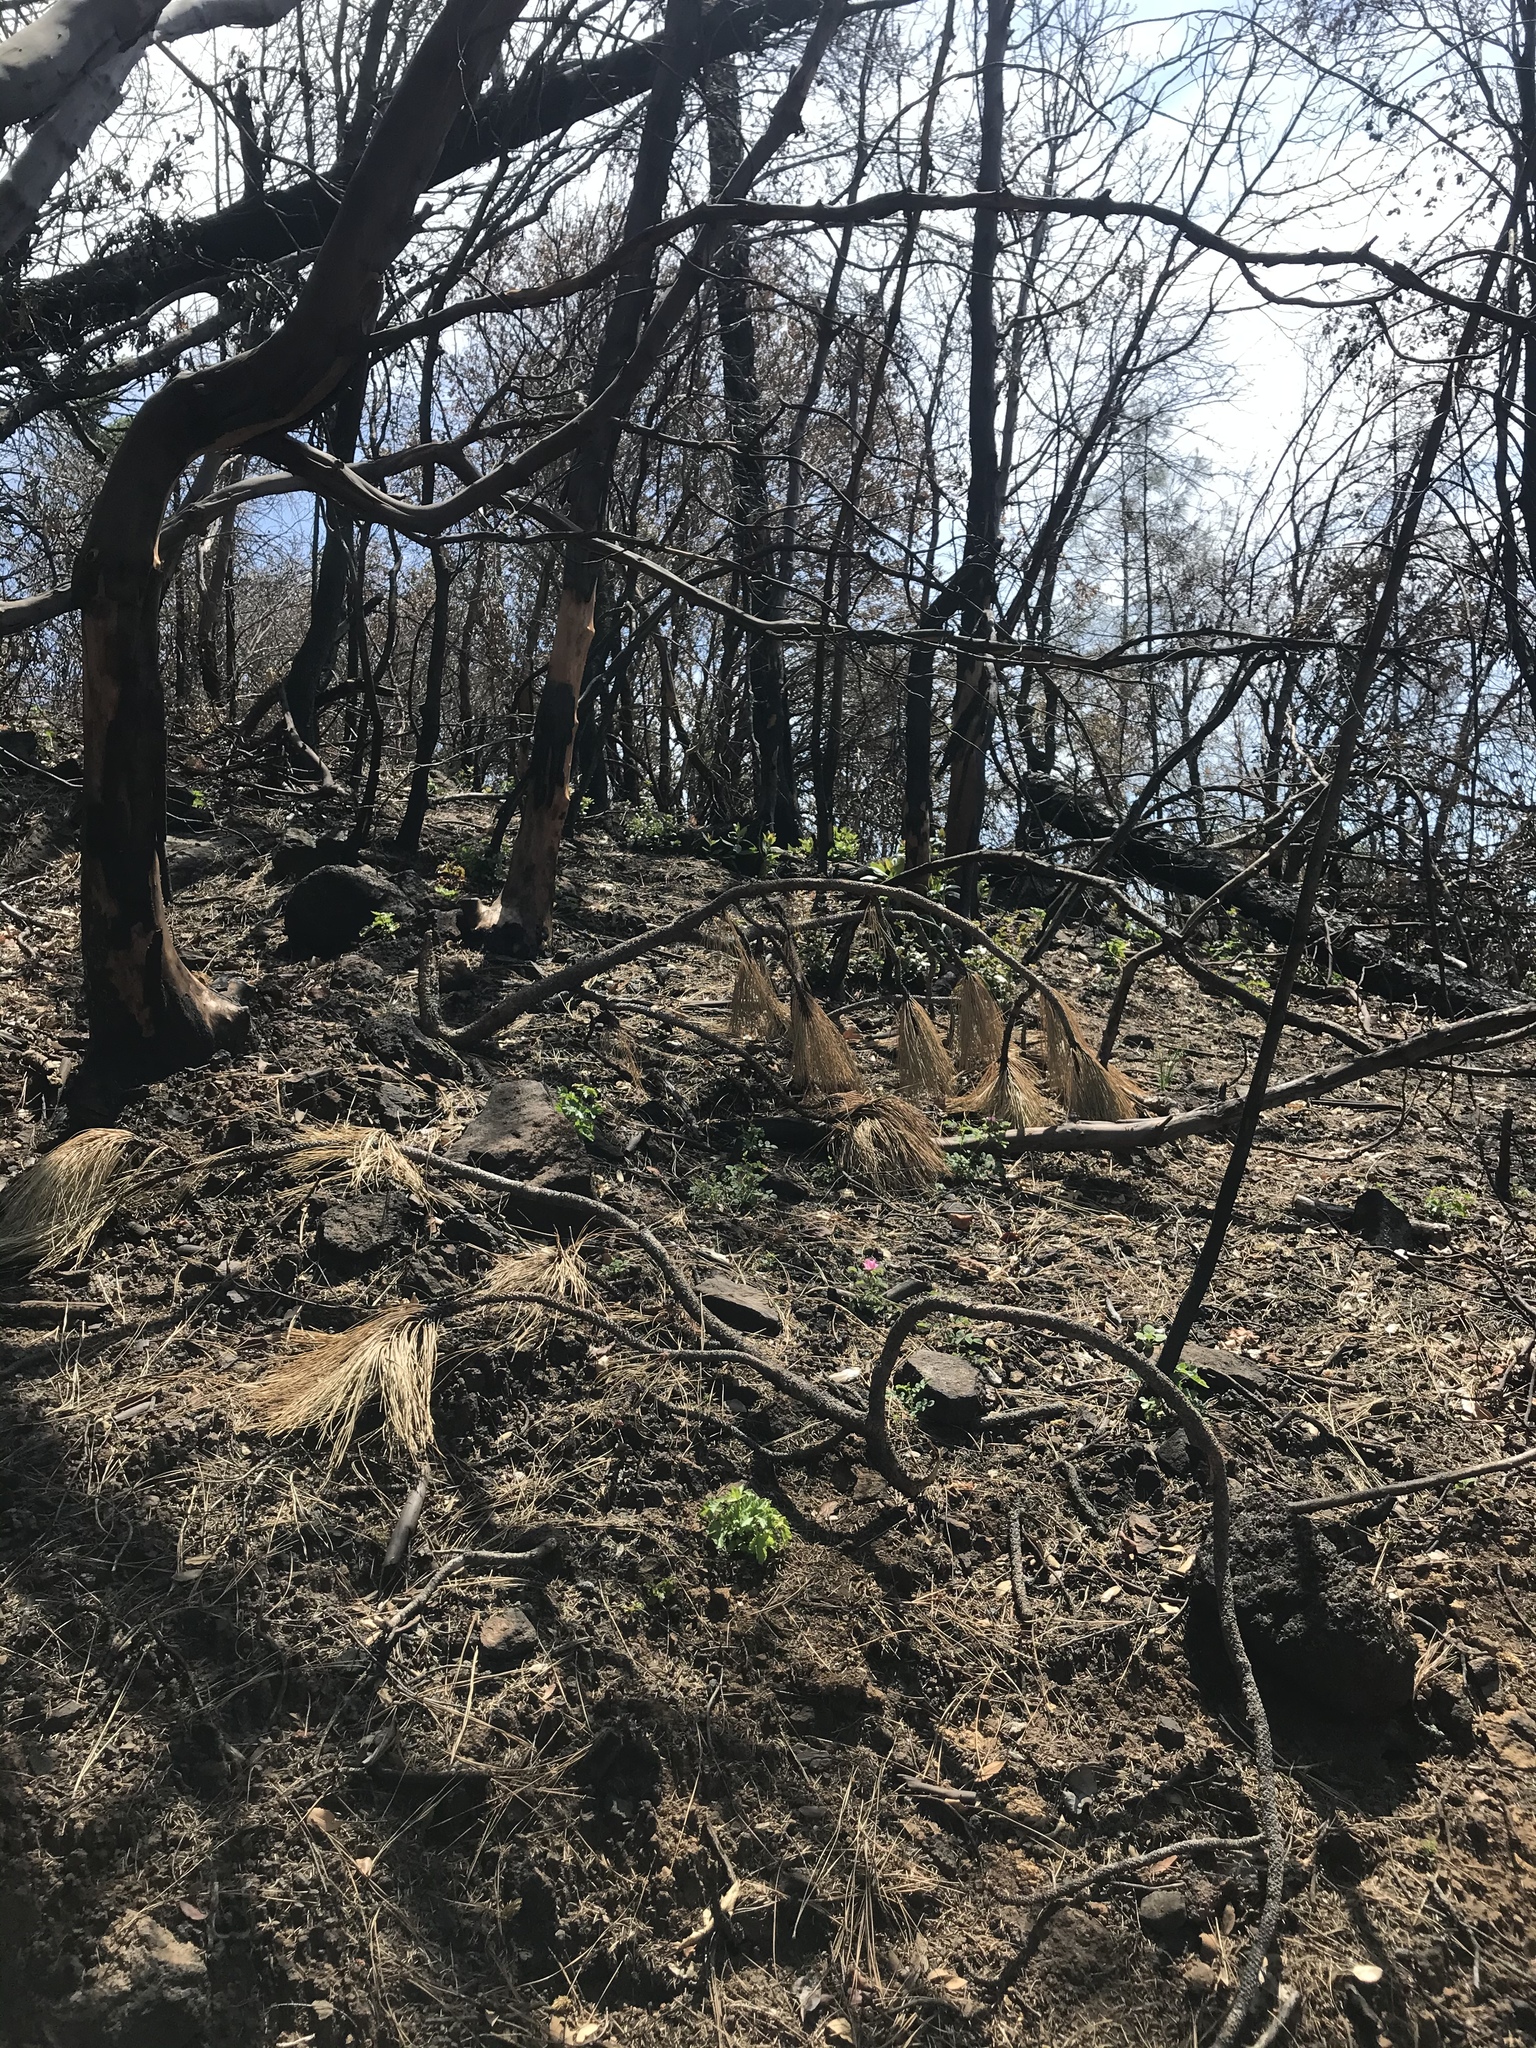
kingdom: Plantae
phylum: Tracheophyta
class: Magnoliopsida
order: Rosales
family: Rosaceae
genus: Rosa
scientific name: Rosa spithamea
